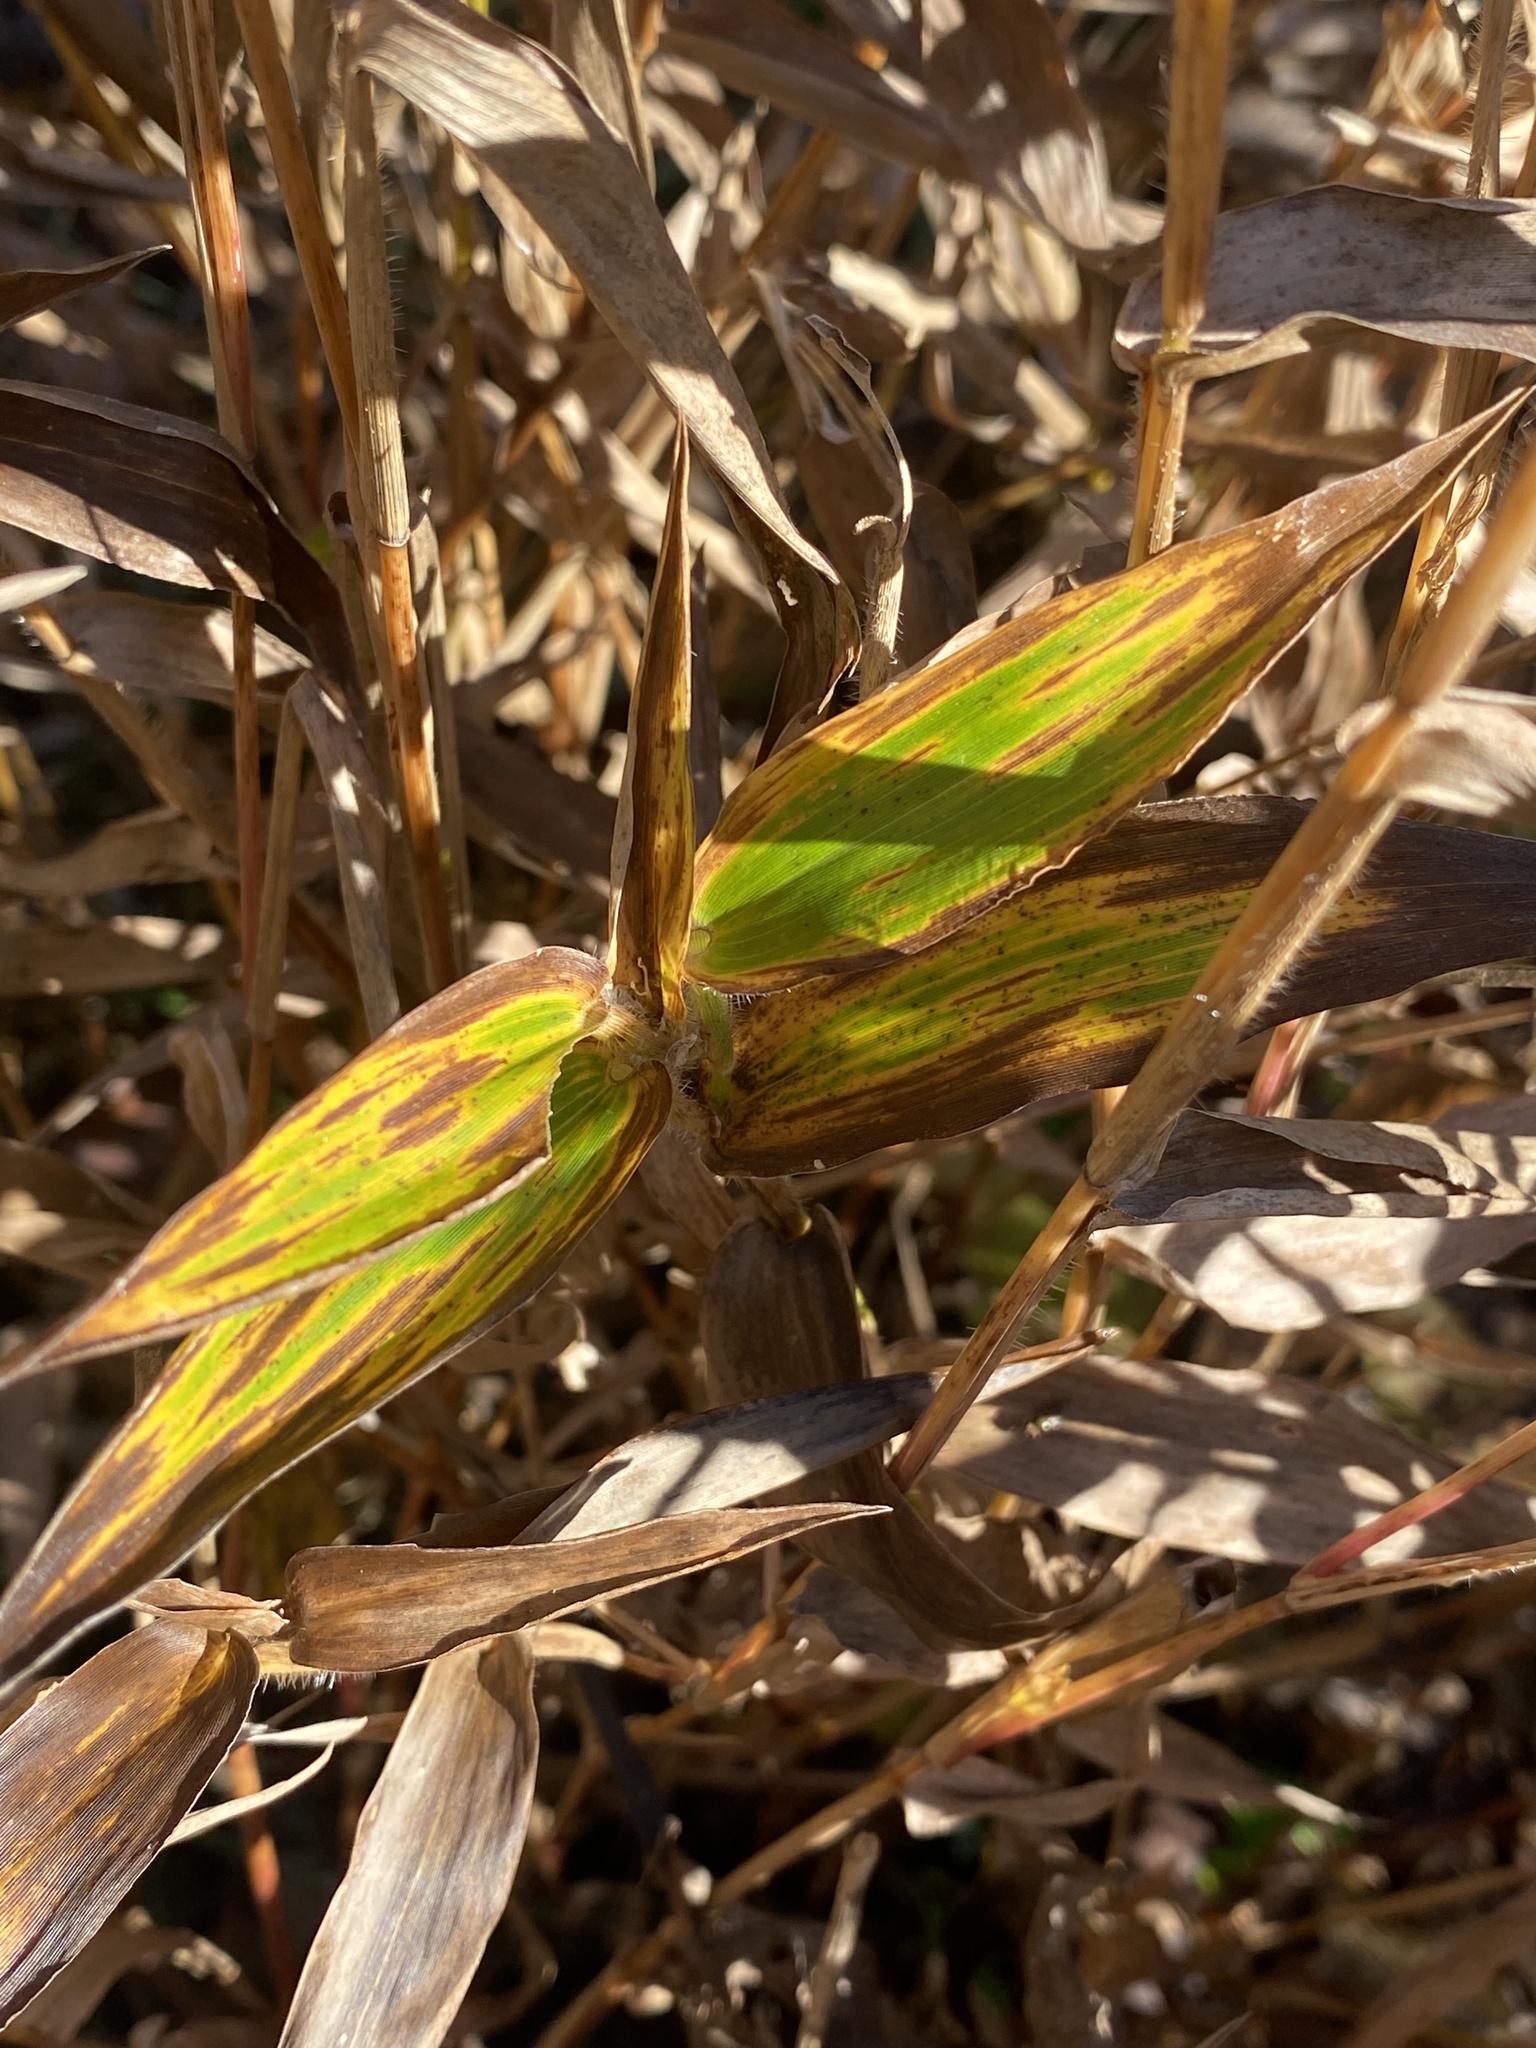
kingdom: Plantae
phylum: Tracheophyta
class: Liliopsida
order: Poales
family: Poaceae
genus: Dichanthelium
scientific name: Dichanthelium clandestinum
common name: Deer-tongue grass
